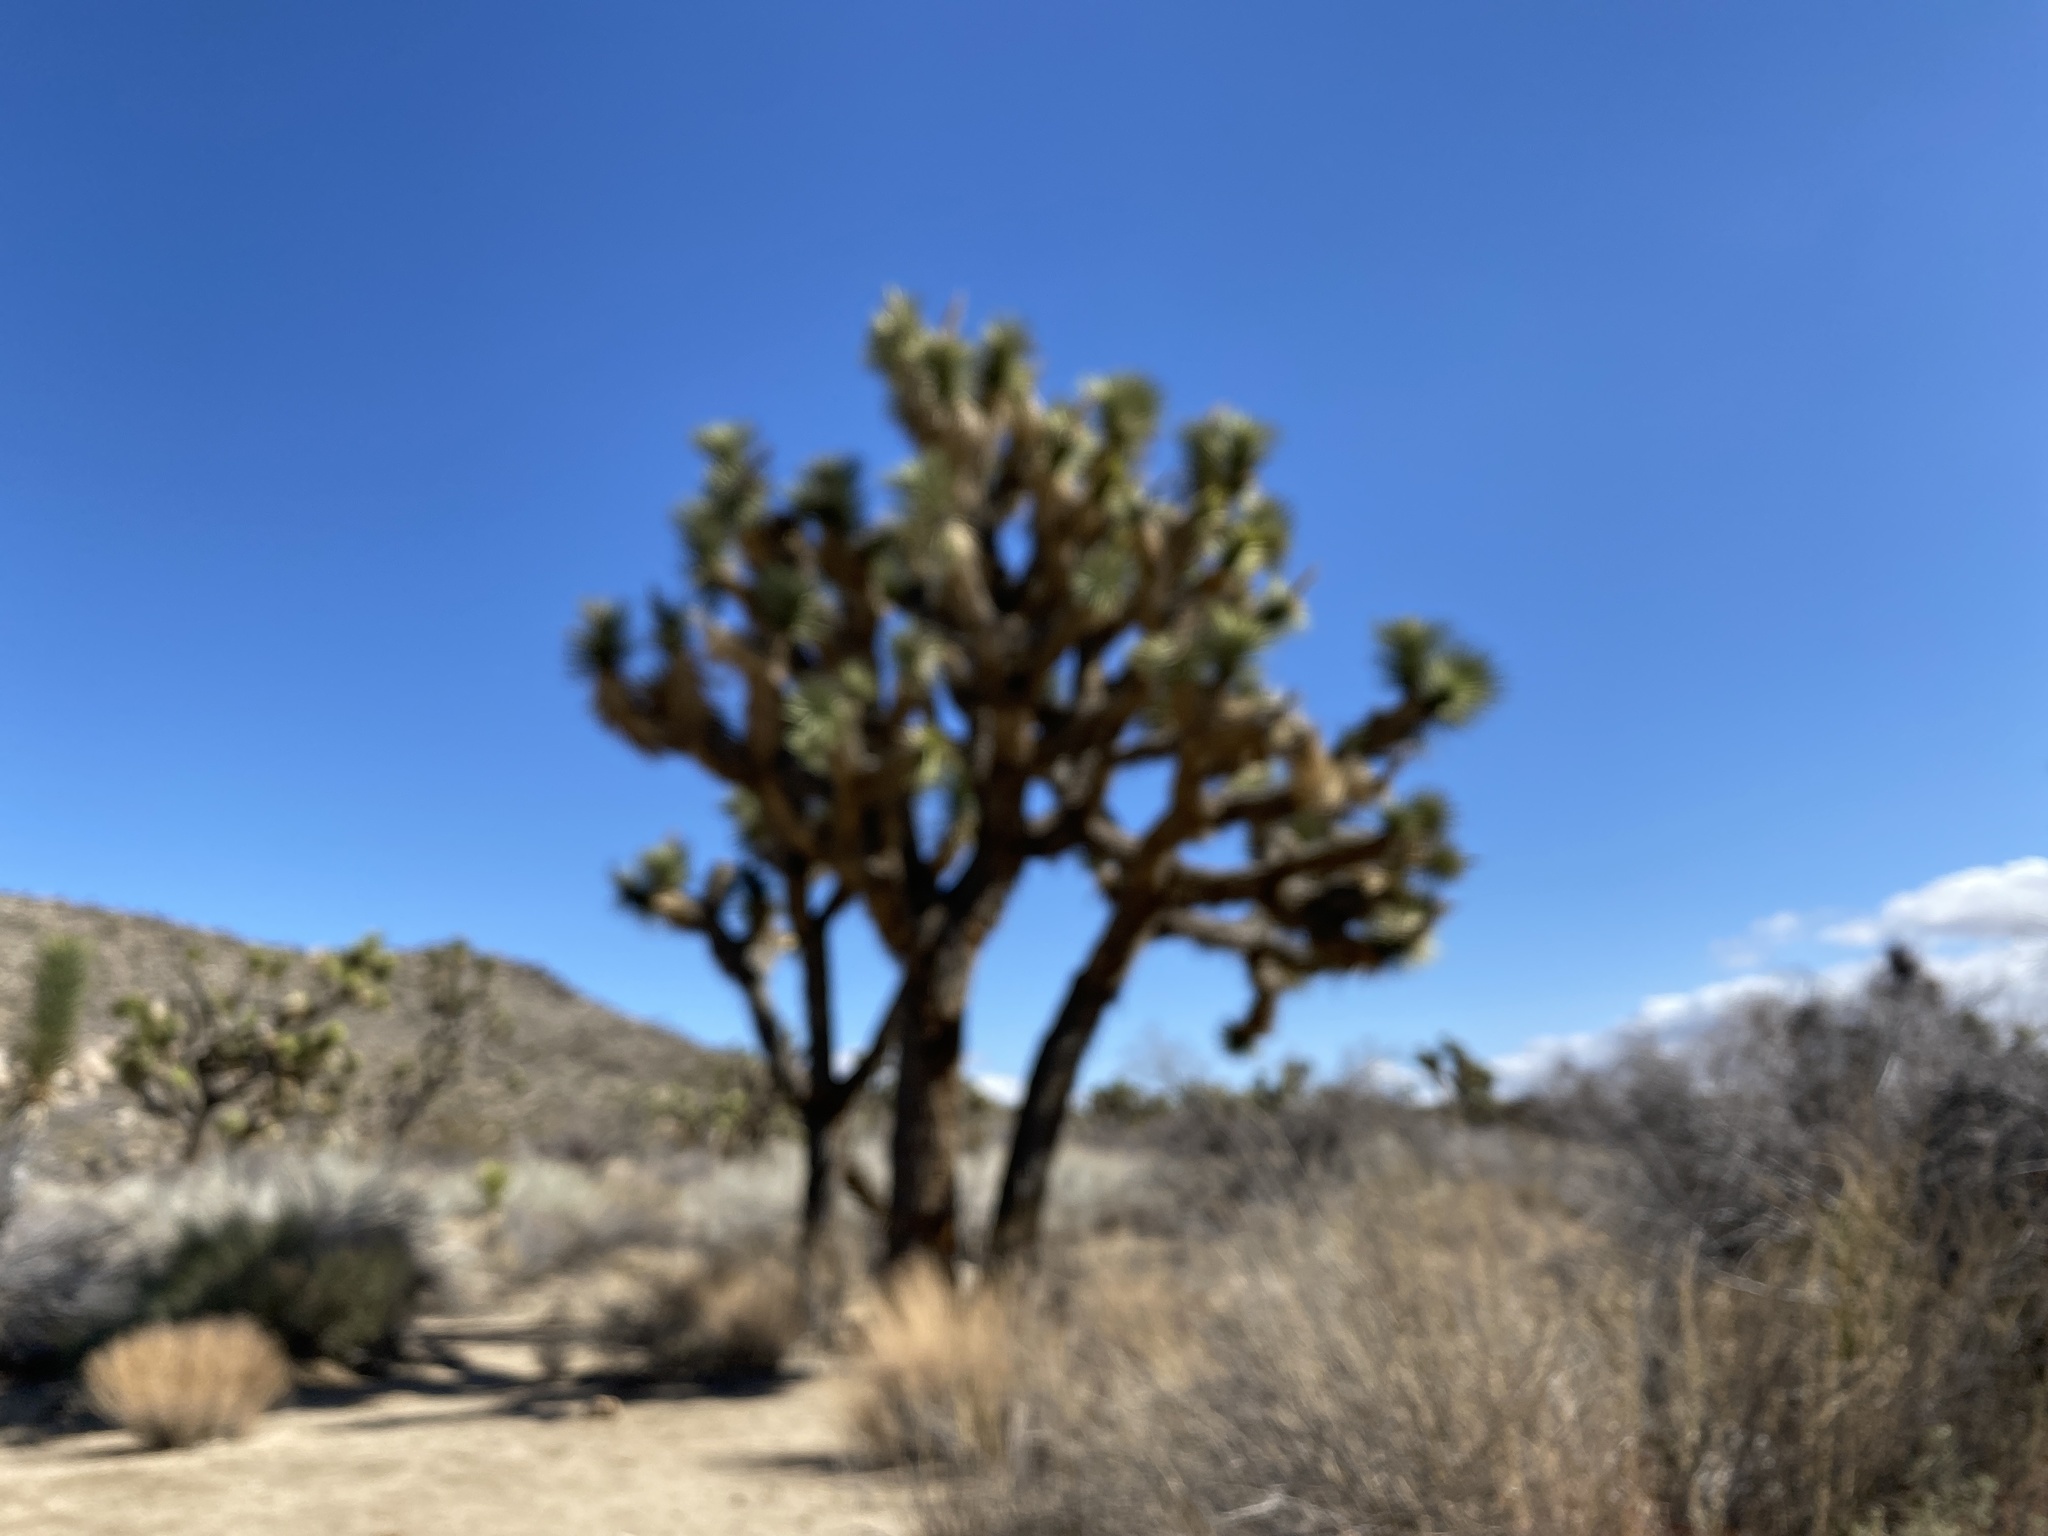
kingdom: Plantae
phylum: Tracheophyta
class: Liliopsida
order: Asparagales
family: Asparagaceae
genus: Yucca
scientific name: Yucca brevifolia
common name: Joshua tree
